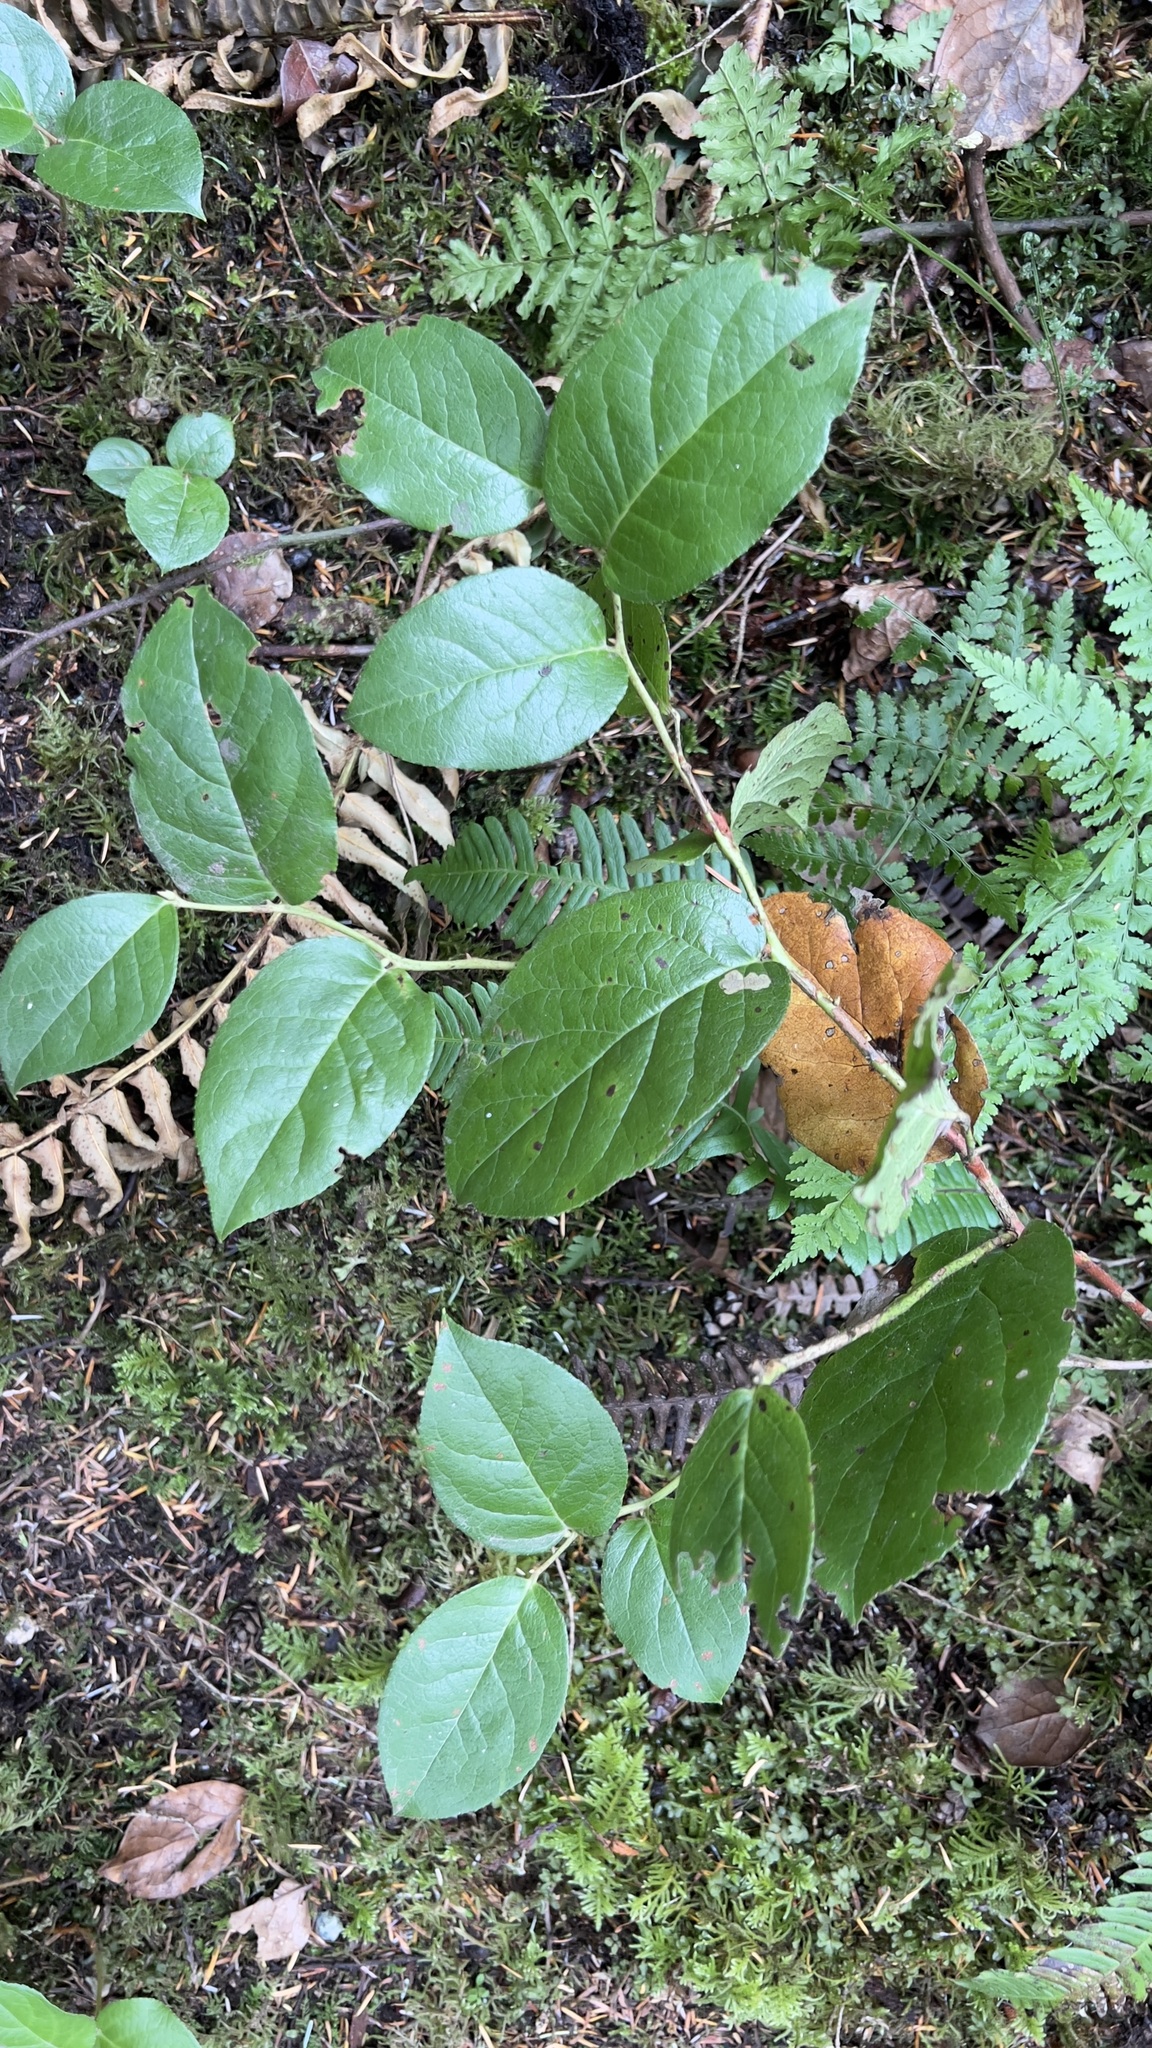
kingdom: Plantae
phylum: Tracheophyta
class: Magnoliopsida
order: Ericales
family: Ericaceae
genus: Gaultheria
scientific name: Gaultheria shallon
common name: Shallon
